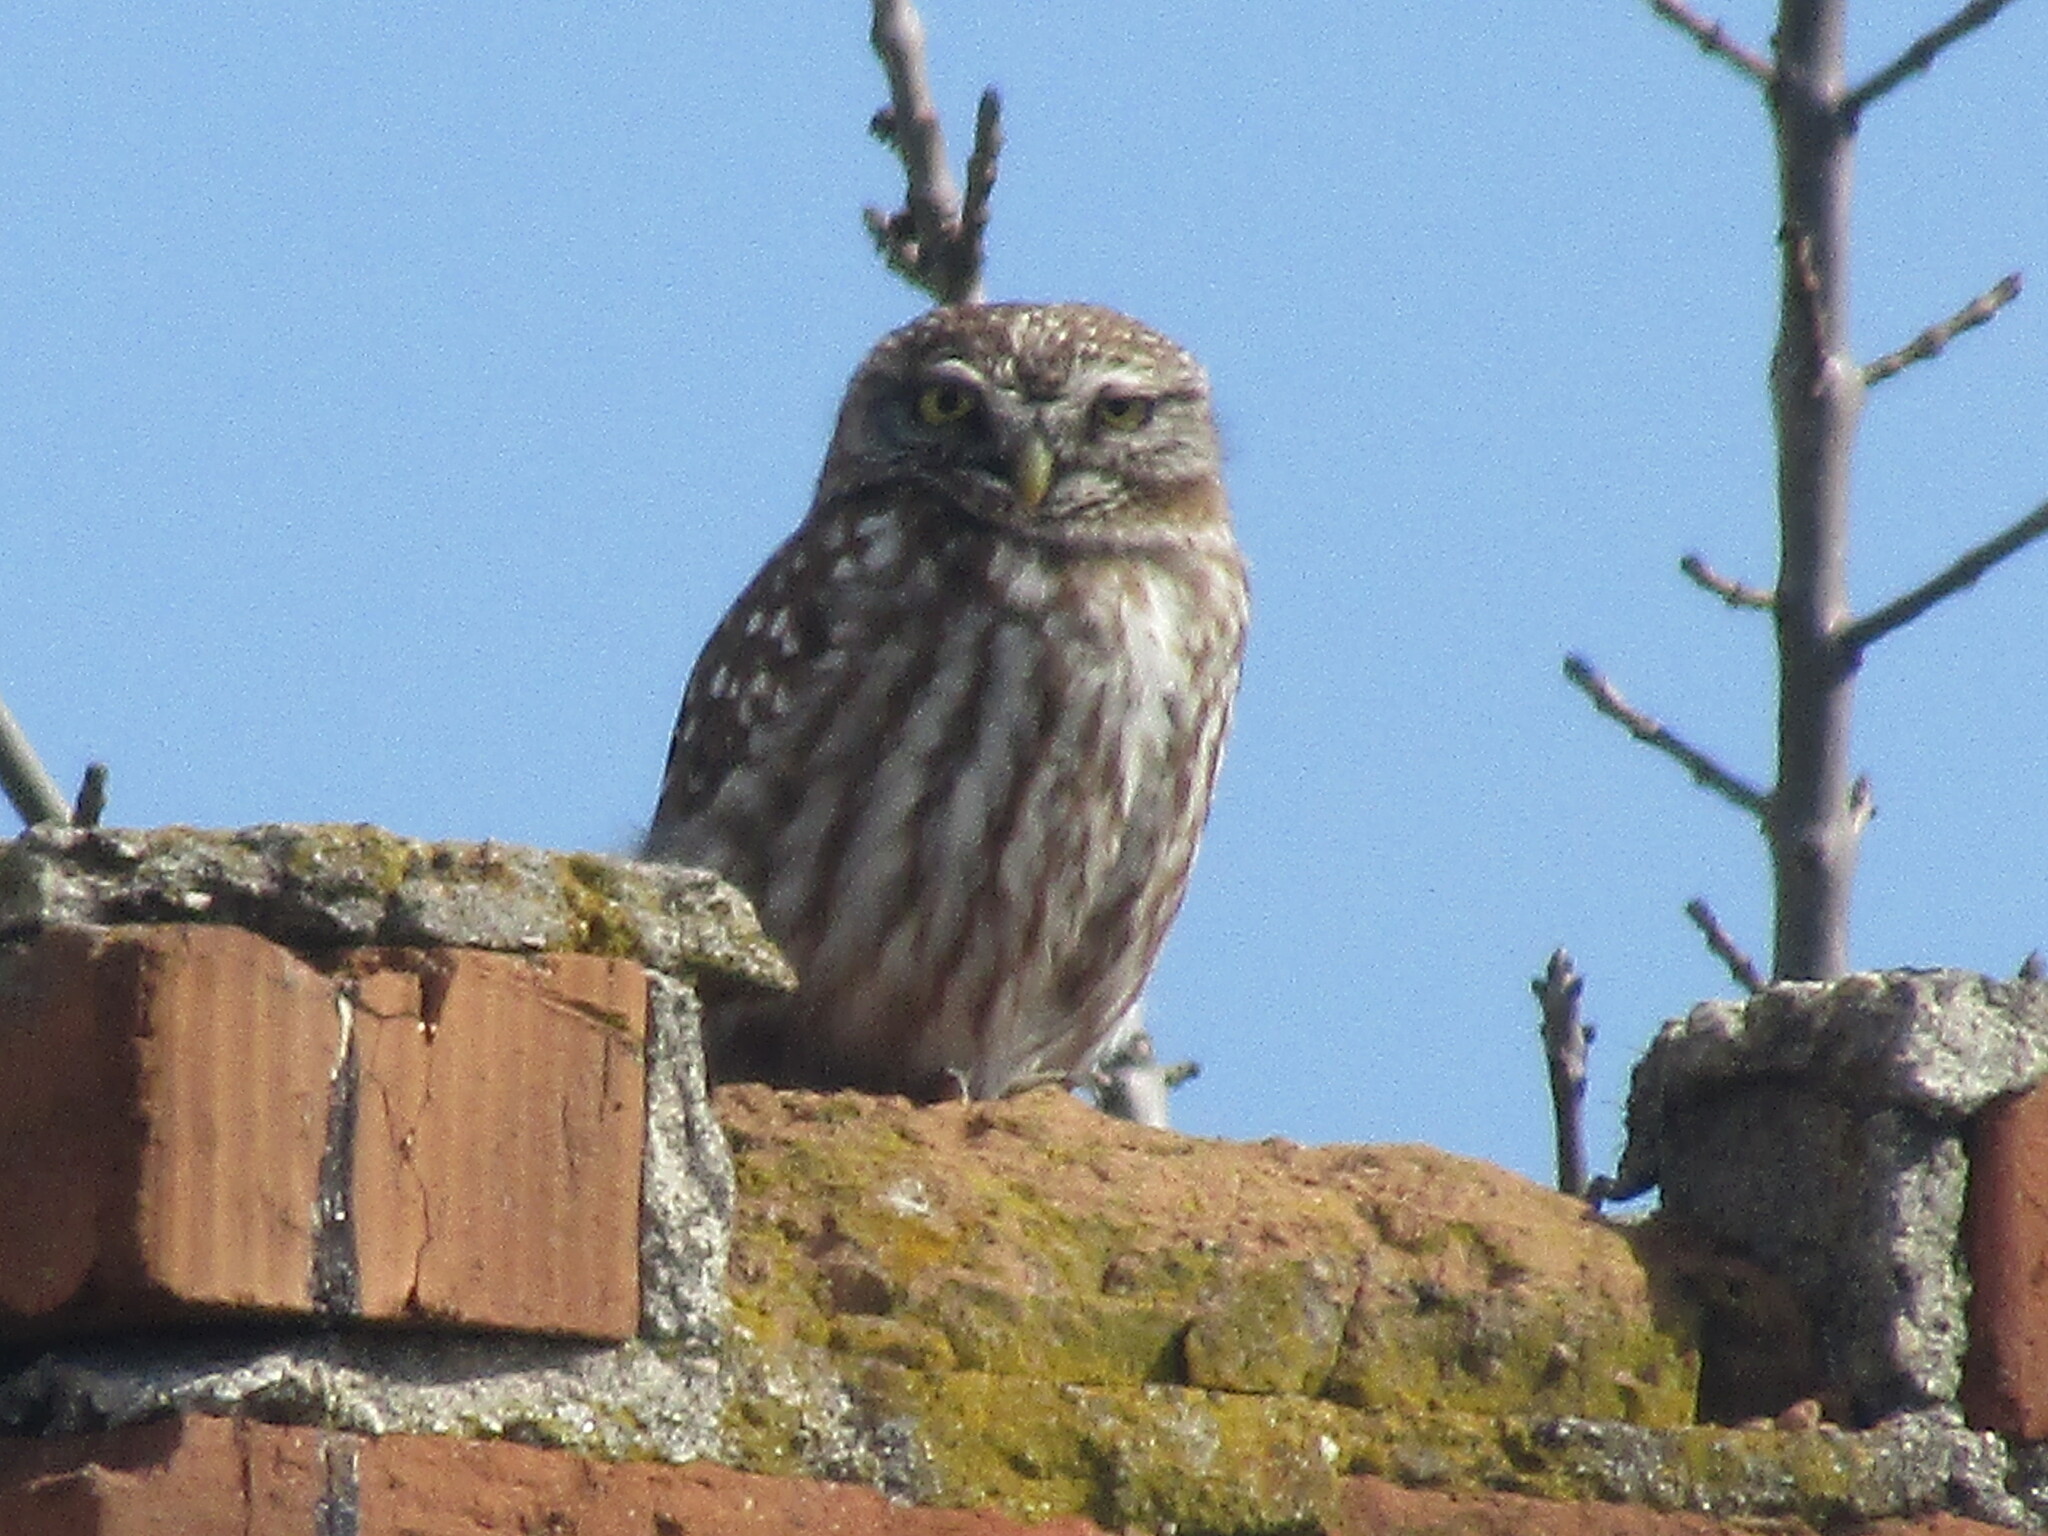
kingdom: Animalia
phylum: Chordata
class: Aves
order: Strigiformes
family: Strigidae
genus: Athene
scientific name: Athene noctua
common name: Little owl
